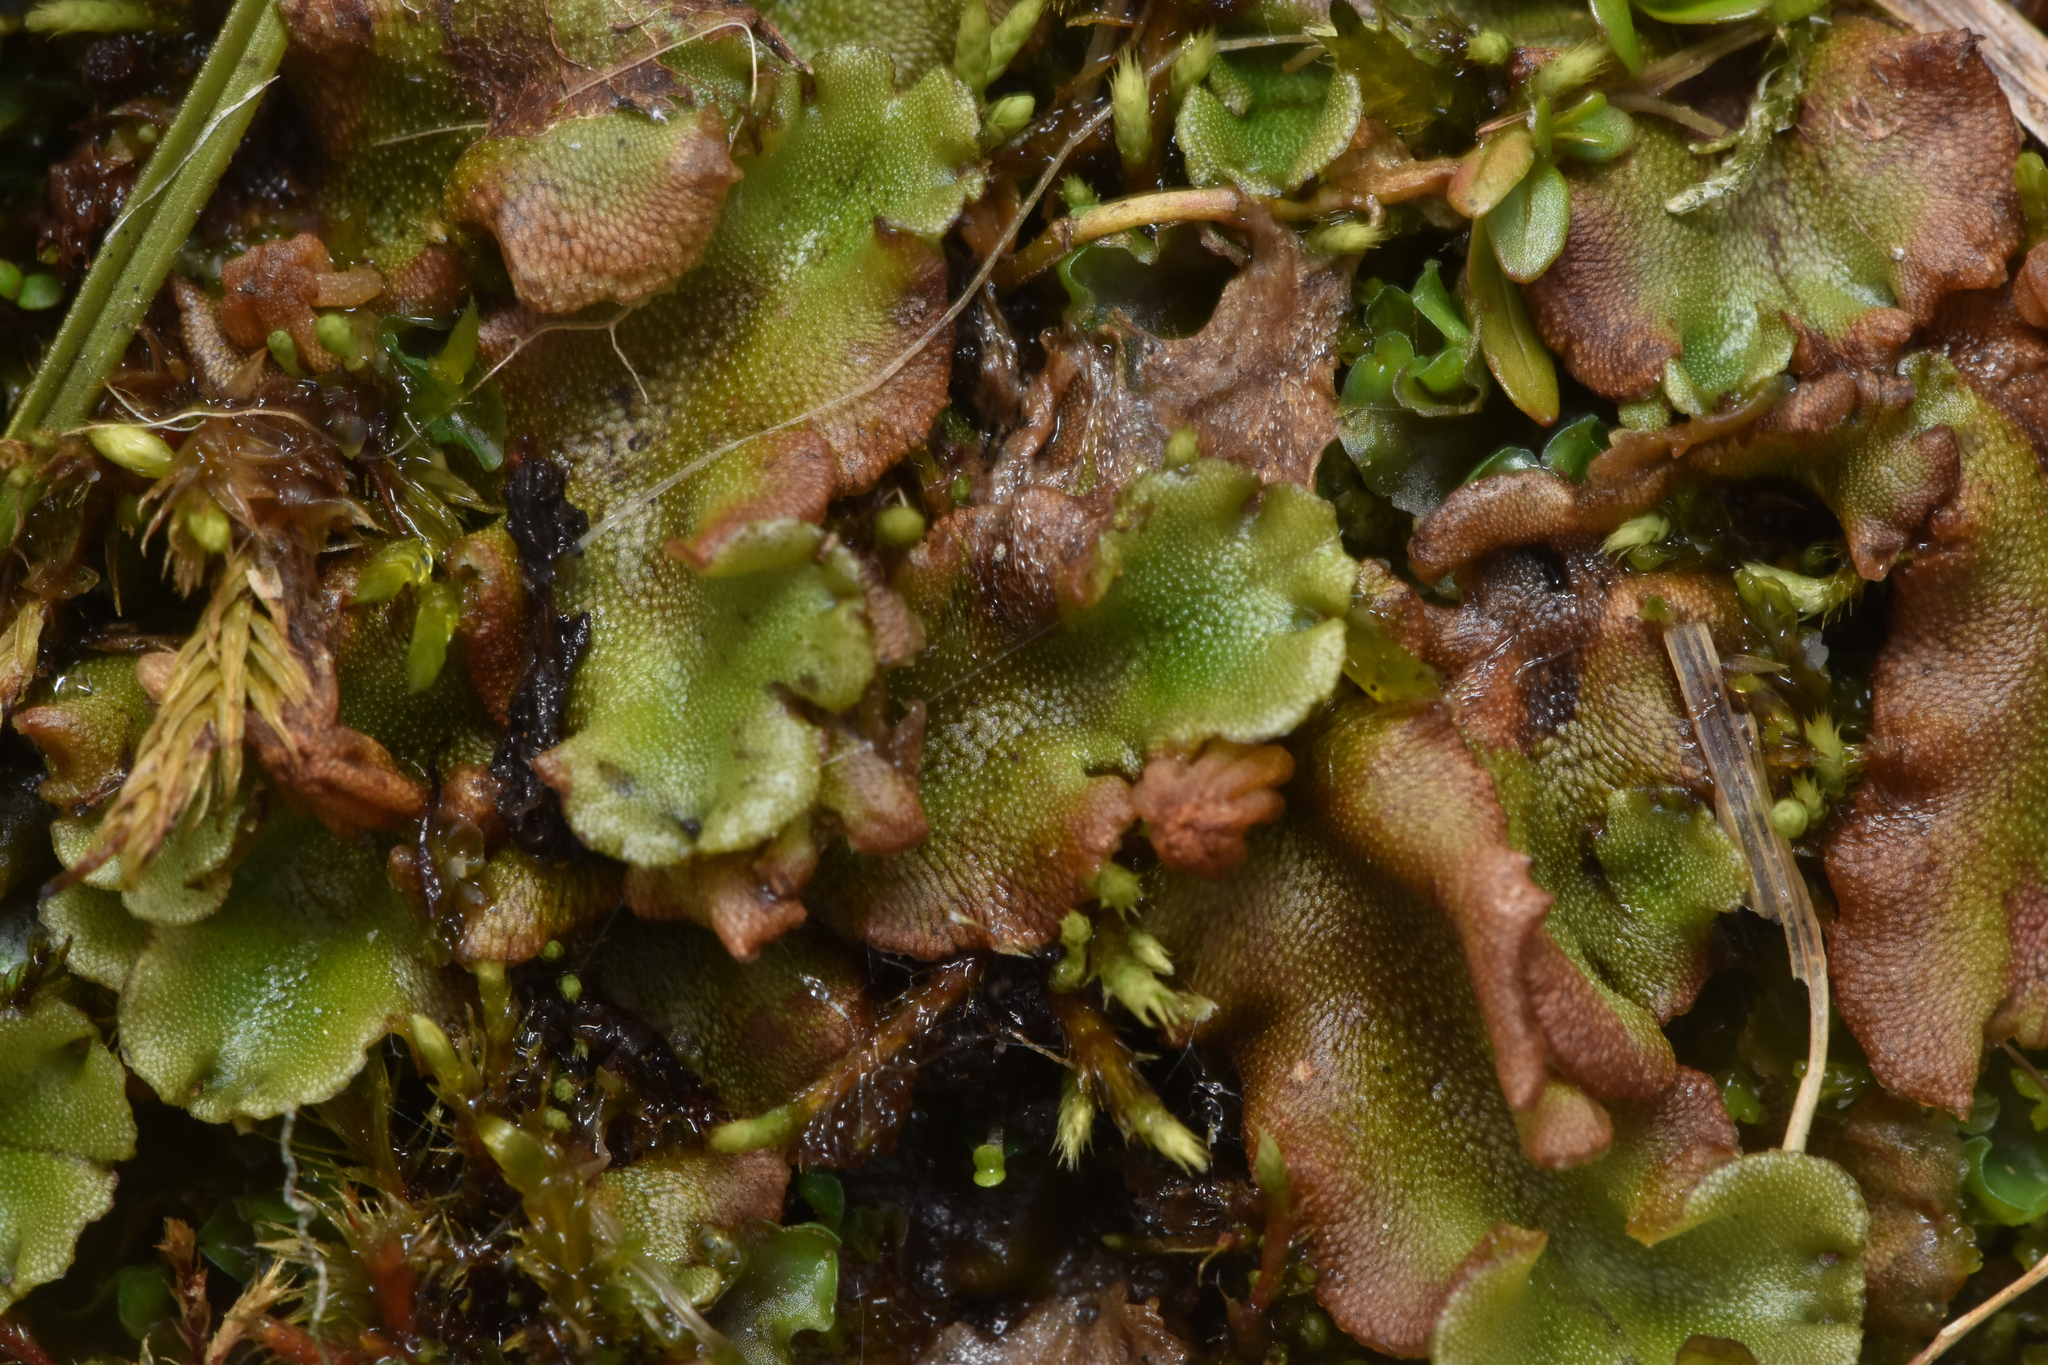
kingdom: Plantae
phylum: Marchantiophyta
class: Marchantiopsida
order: Marchantiales
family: Marchantiaceae
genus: Marchantia
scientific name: Marchantia polymorpha
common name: Common liverwort
